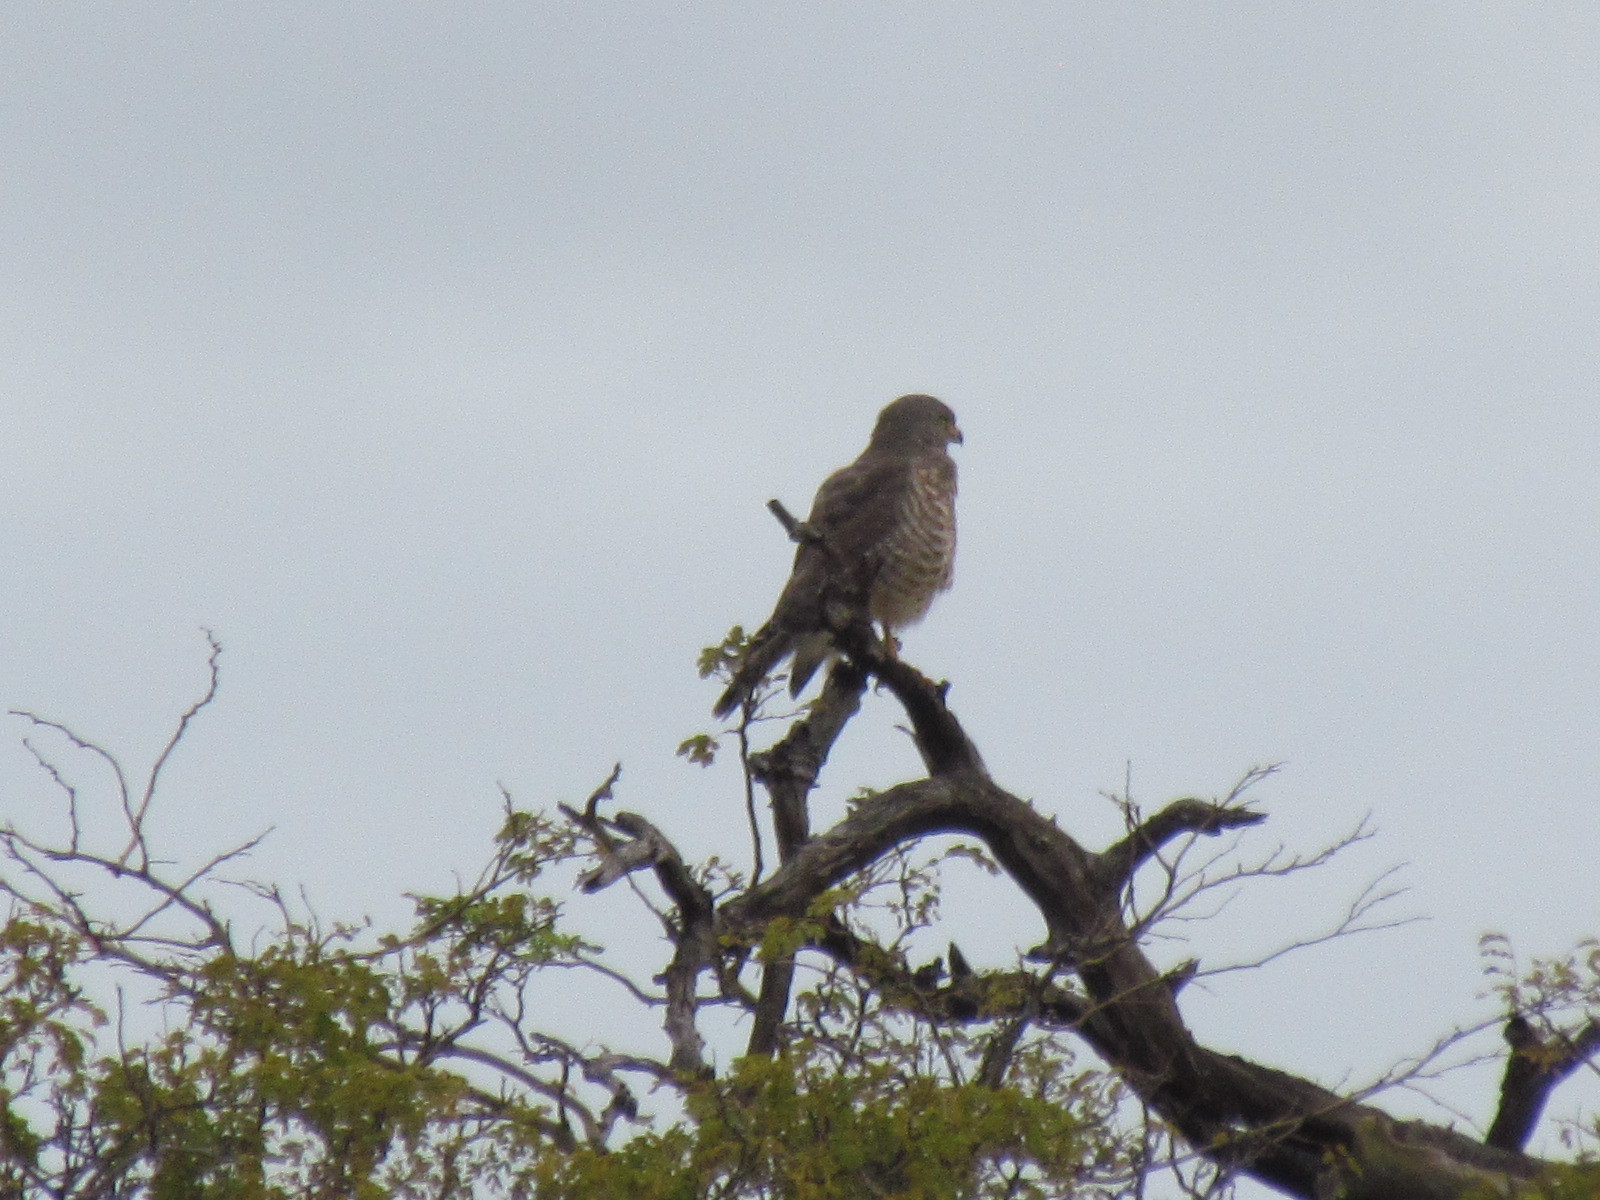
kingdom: Animalia
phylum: Chordata
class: Aves
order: Accipitriformes
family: Accipitridae
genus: Rupornis
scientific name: Rupornis magnirostris
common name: Roadside hawk
